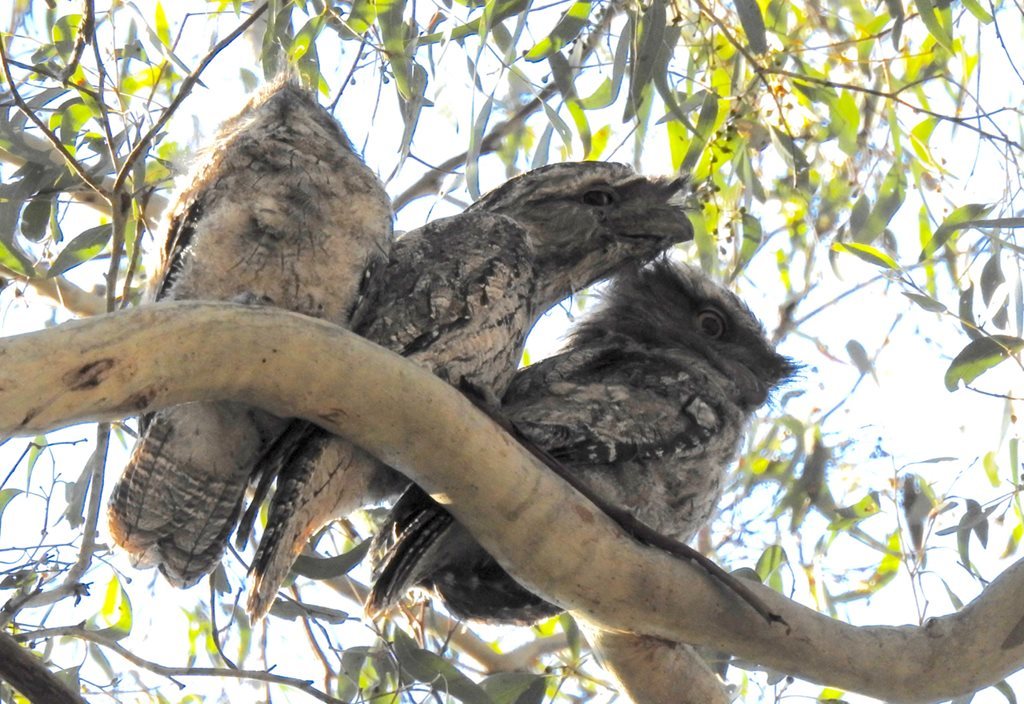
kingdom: Animalia
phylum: Chordata
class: Aves
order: Caprimulgiformes
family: Podargidae
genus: Podargus
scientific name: Podargus strigoides
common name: Tawny frogmouth
